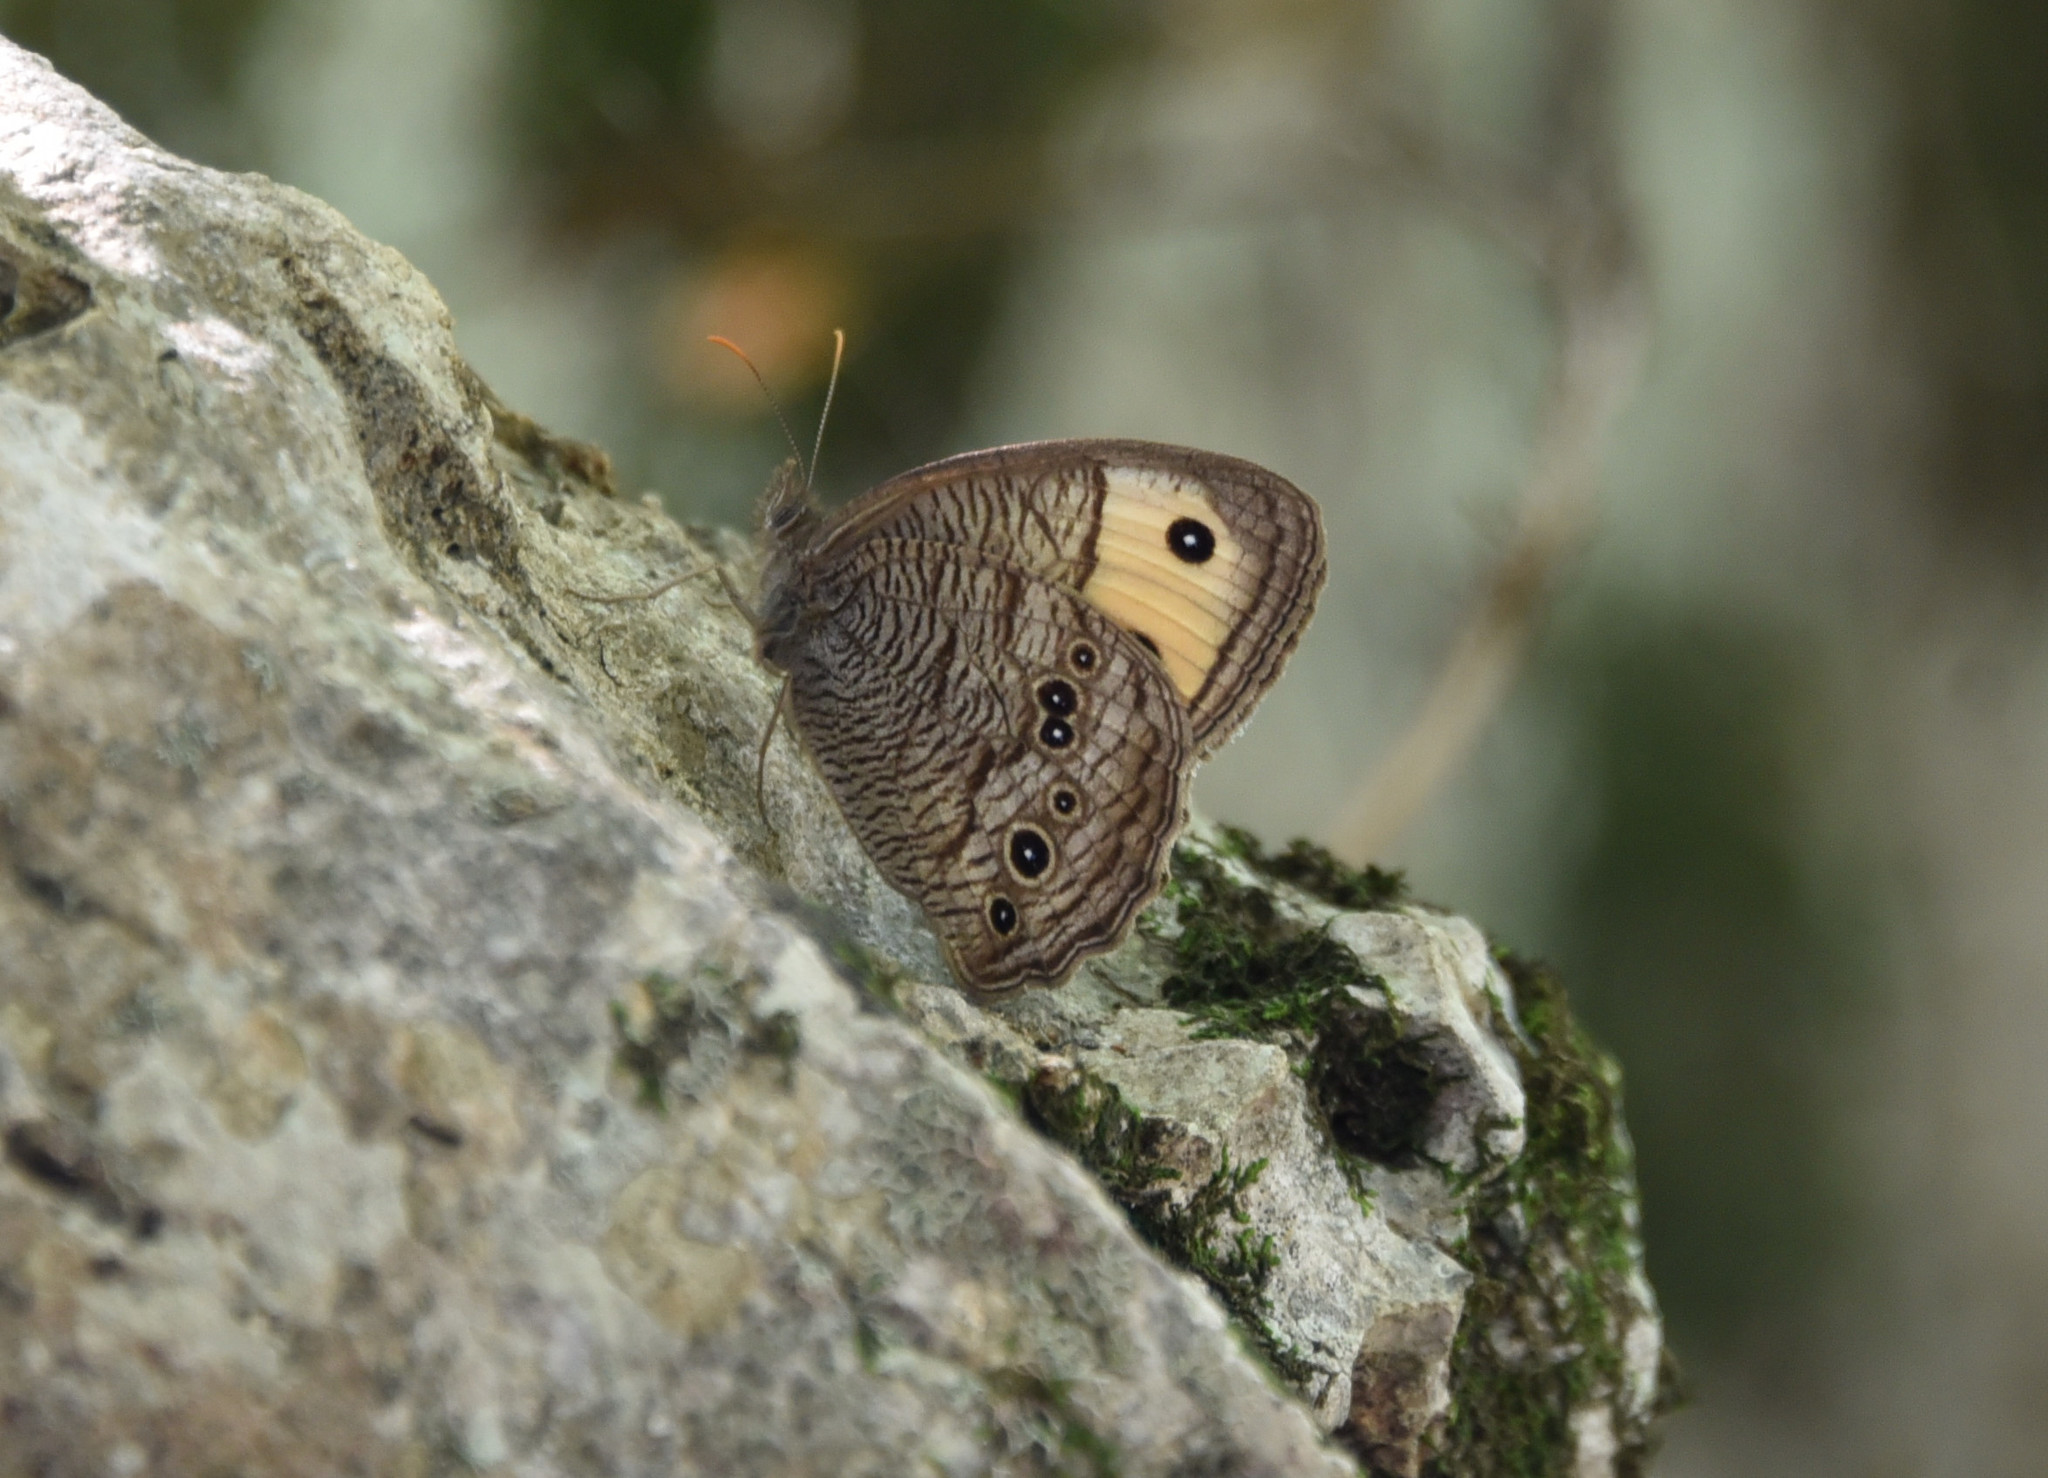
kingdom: Animalia
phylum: Arthropoda
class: Insecta
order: Lepidoptera
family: Nymphalidae
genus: Cercyonis
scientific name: Cercyonis pegala
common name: Common wood-nymph
